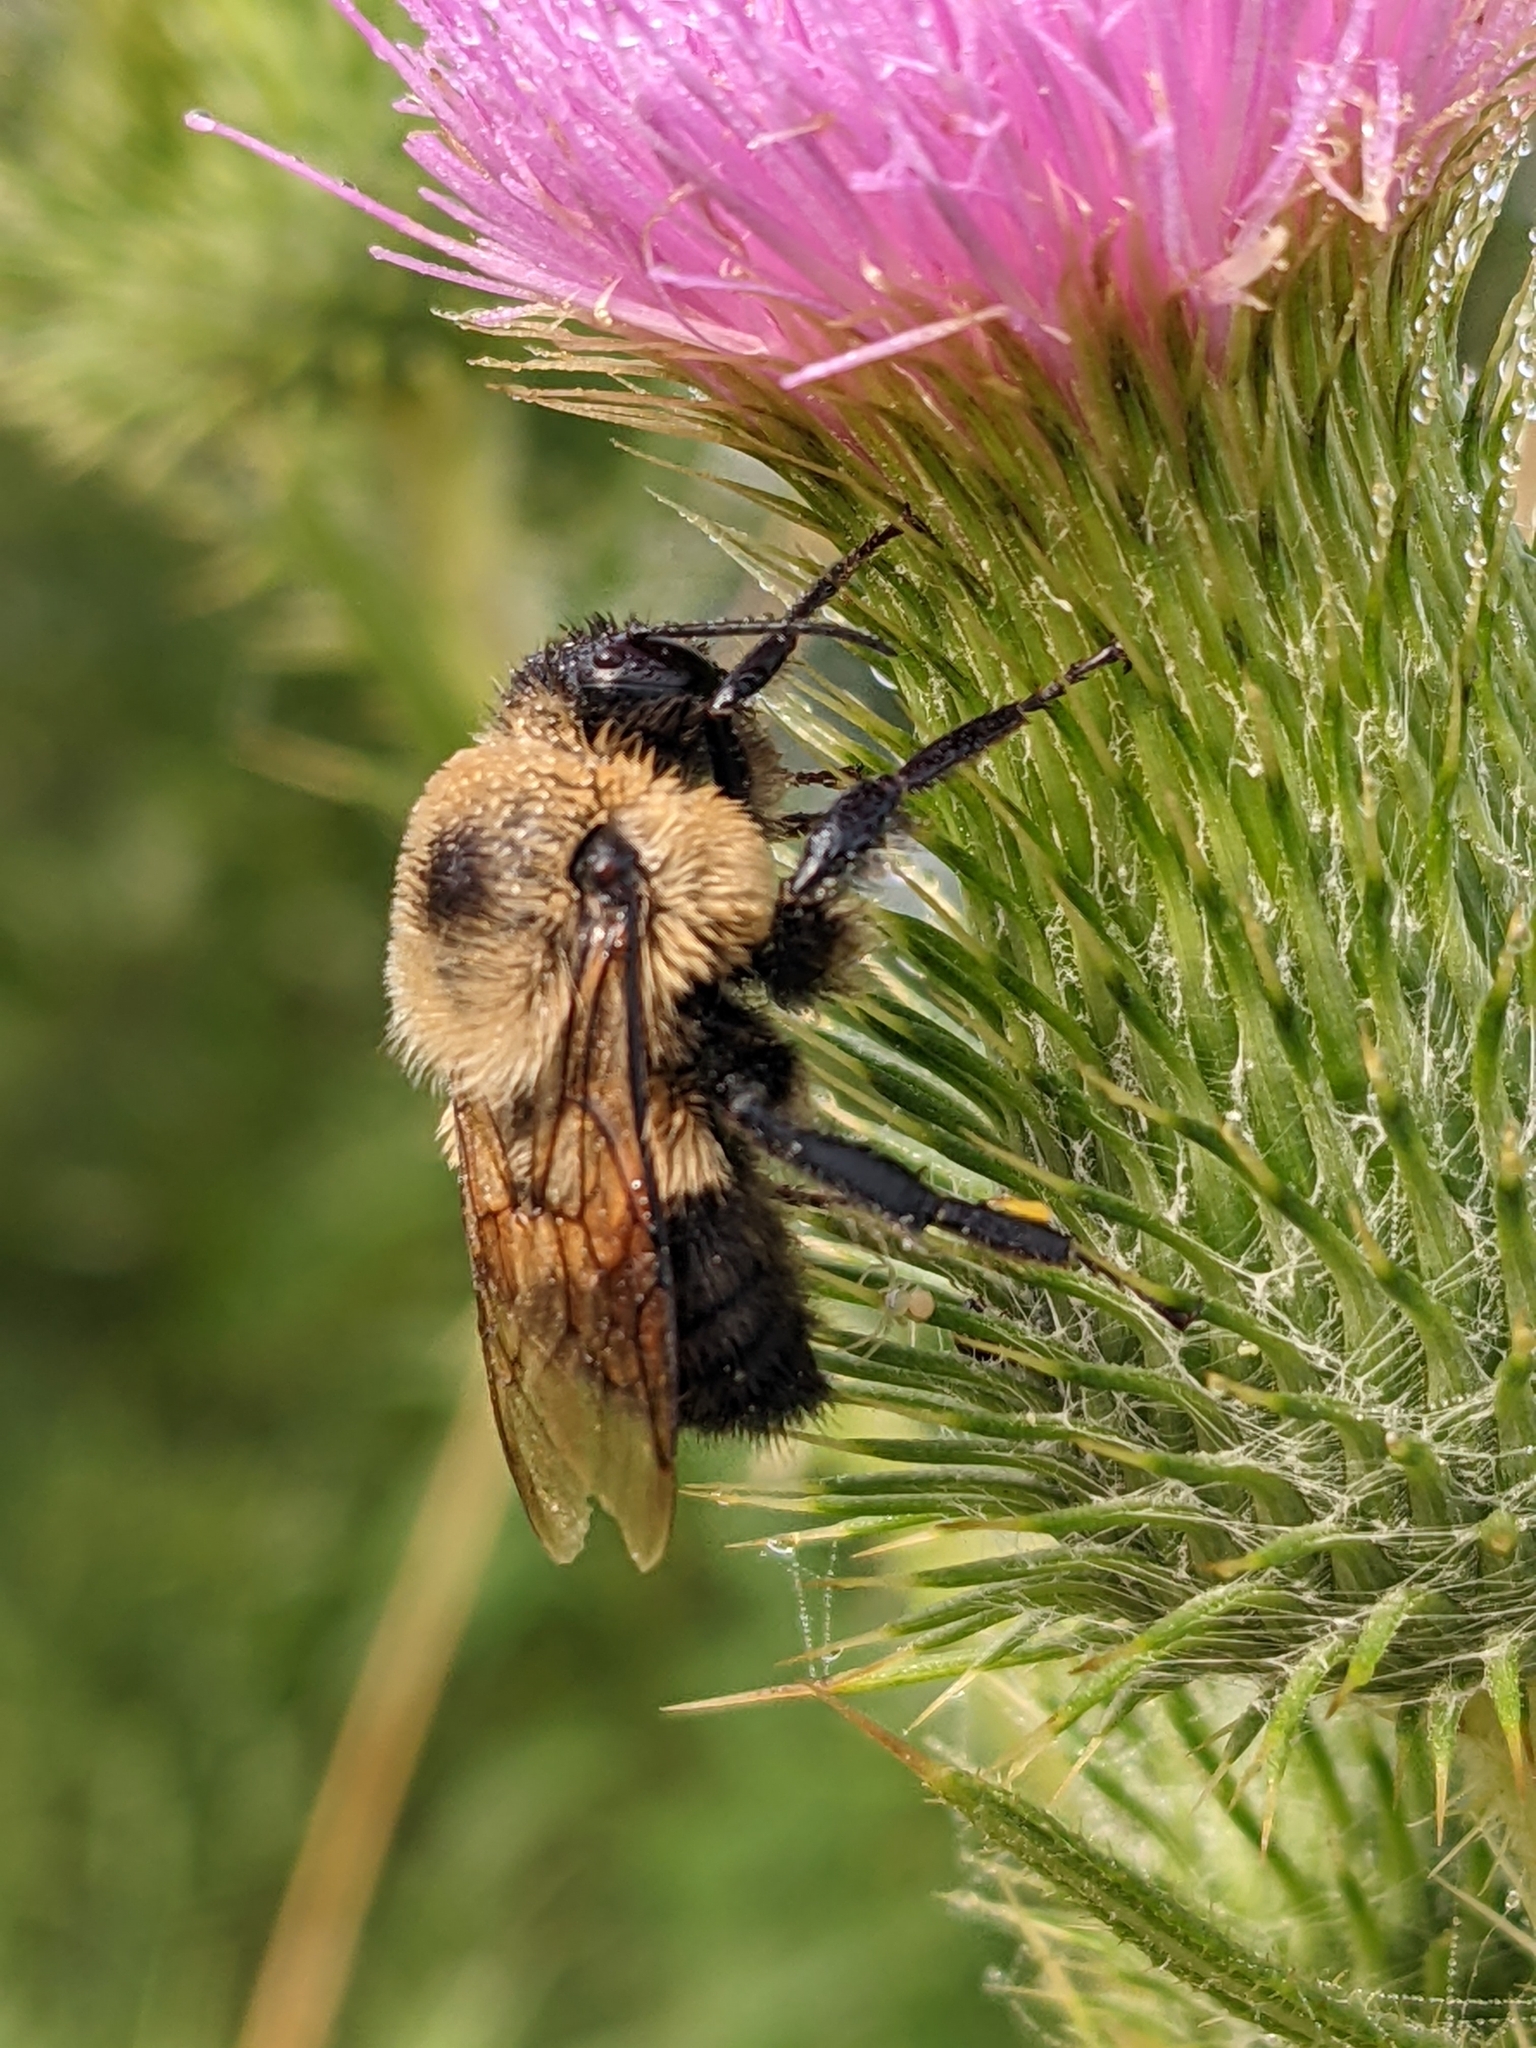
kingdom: Animalia
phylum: Arthropoda
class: Insecta
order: Hymenoptera
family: Apidae
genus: Bombus
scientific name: Bombus griseocollis
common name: Brown-belted bumble bee
